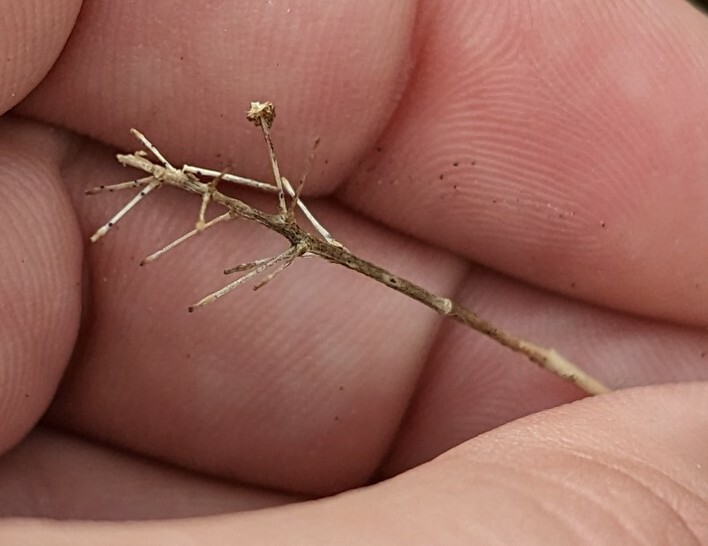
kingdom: Plantae
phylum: Tracheophyta
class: Liliopsida
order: Asparagales
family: Asparagaceae
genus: Maianthemum
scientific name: Maianthemum canadense
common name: False lily-of-the-valley
